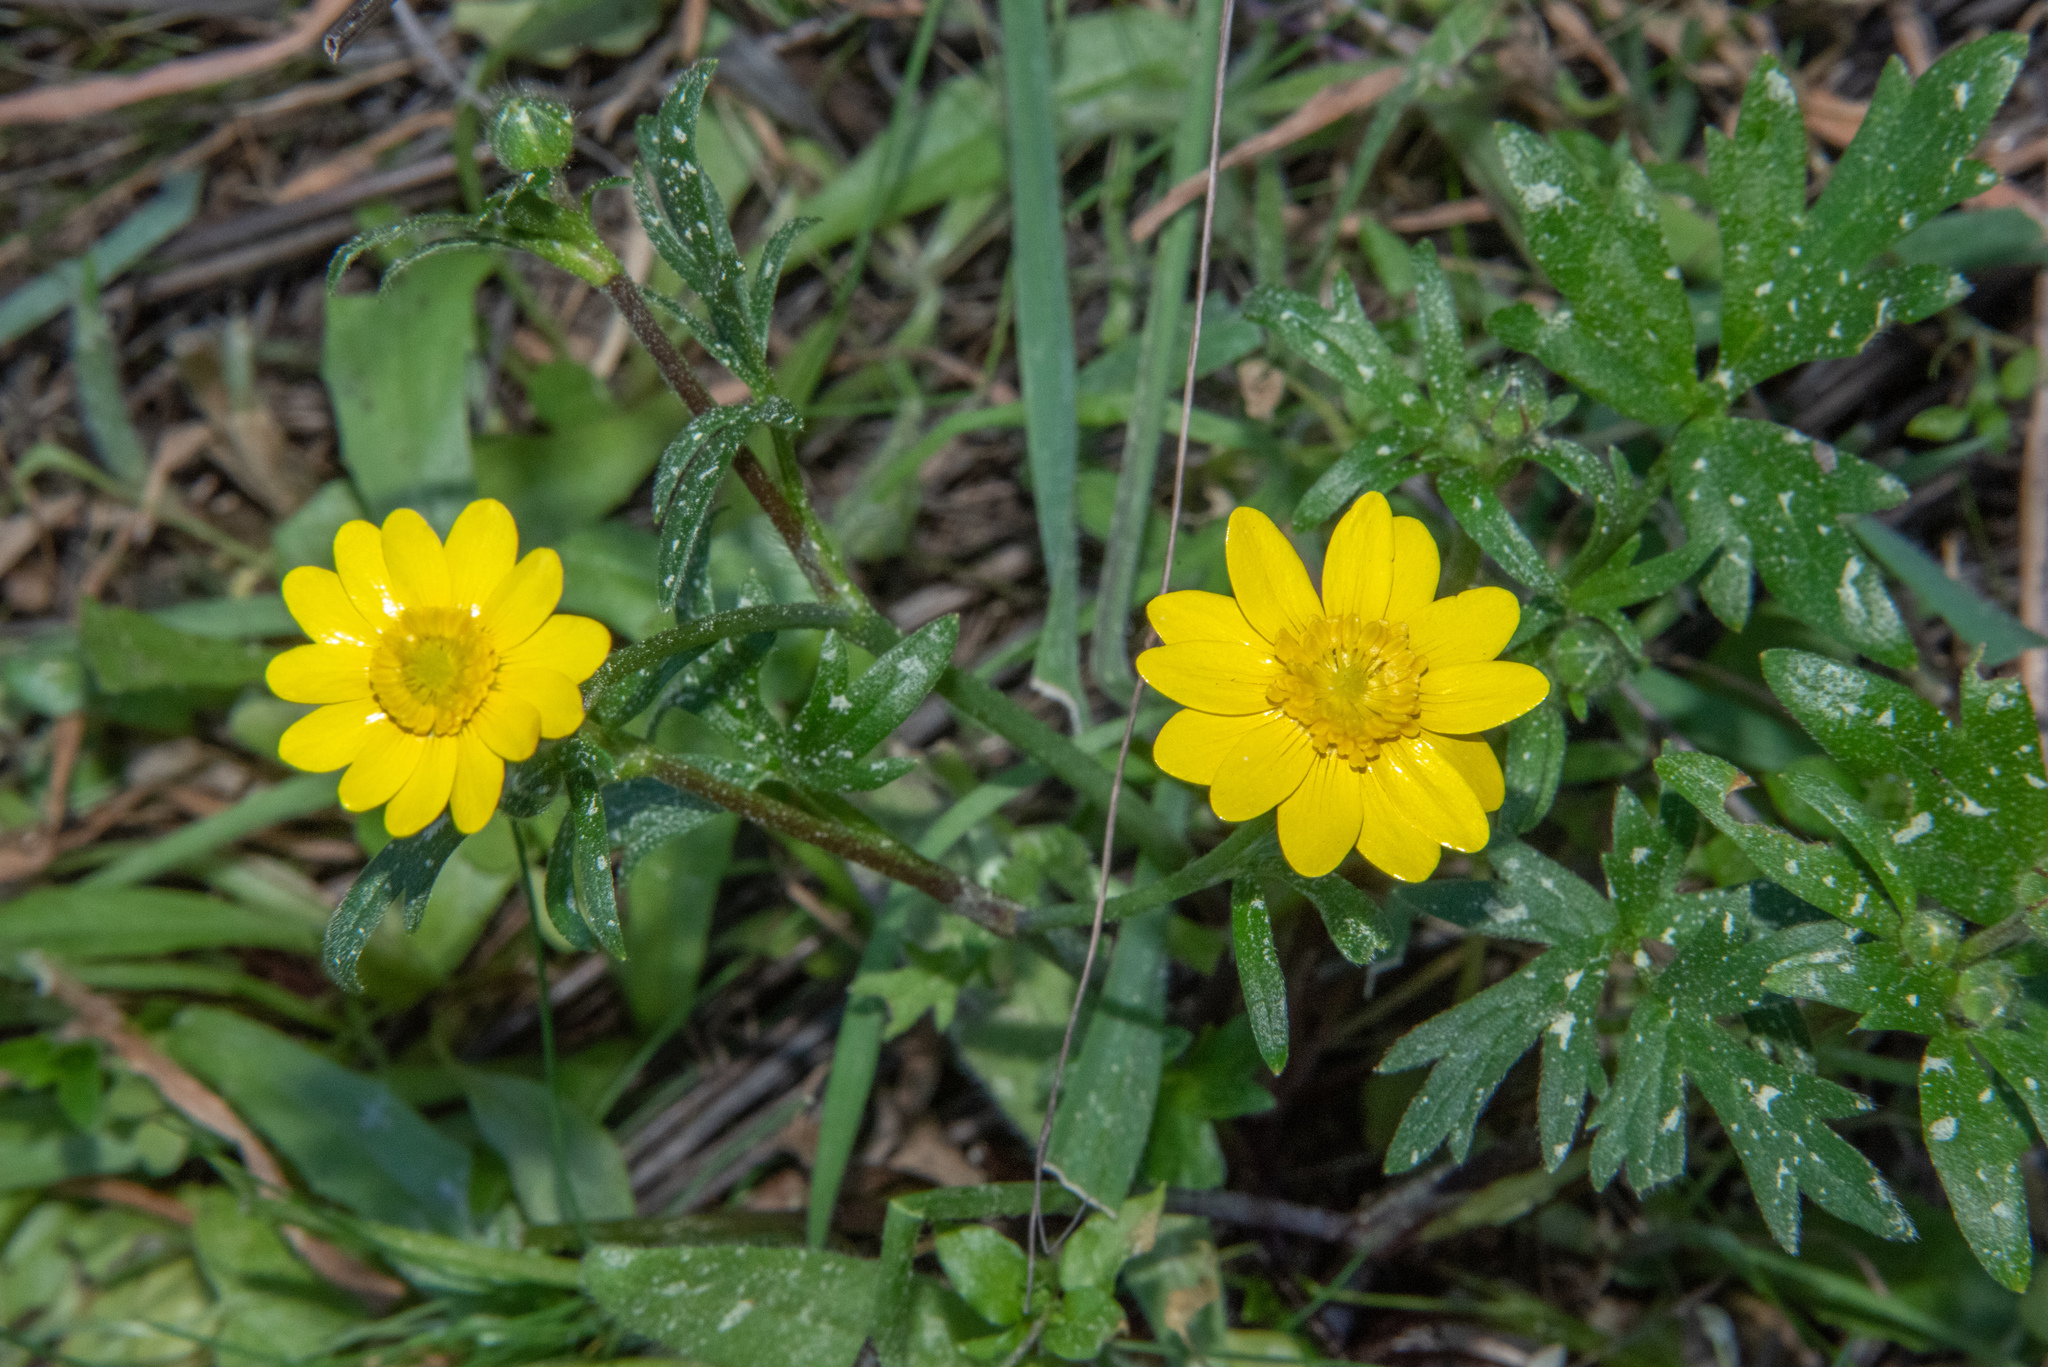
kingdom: Plantae
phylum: Tracheophyta
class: Magnoliopsida
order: Ranunculales
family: Ranunculaceae
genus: Ranunculus
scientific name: Ranunculus californicus
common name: California buttercup
